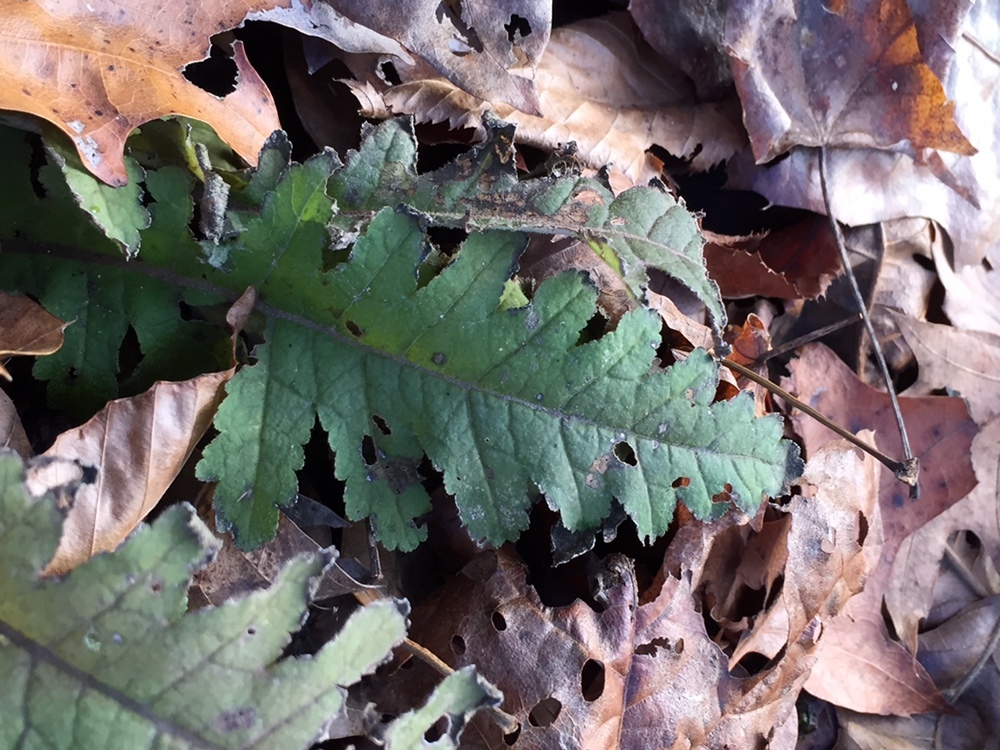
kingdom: Plantae
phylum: Tracheophyta
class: Magnoliopsida
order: Lamiales
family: Orobanchaceae
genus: Pedicularis
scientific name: Pedicularis canadensis
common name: Early lousewort
